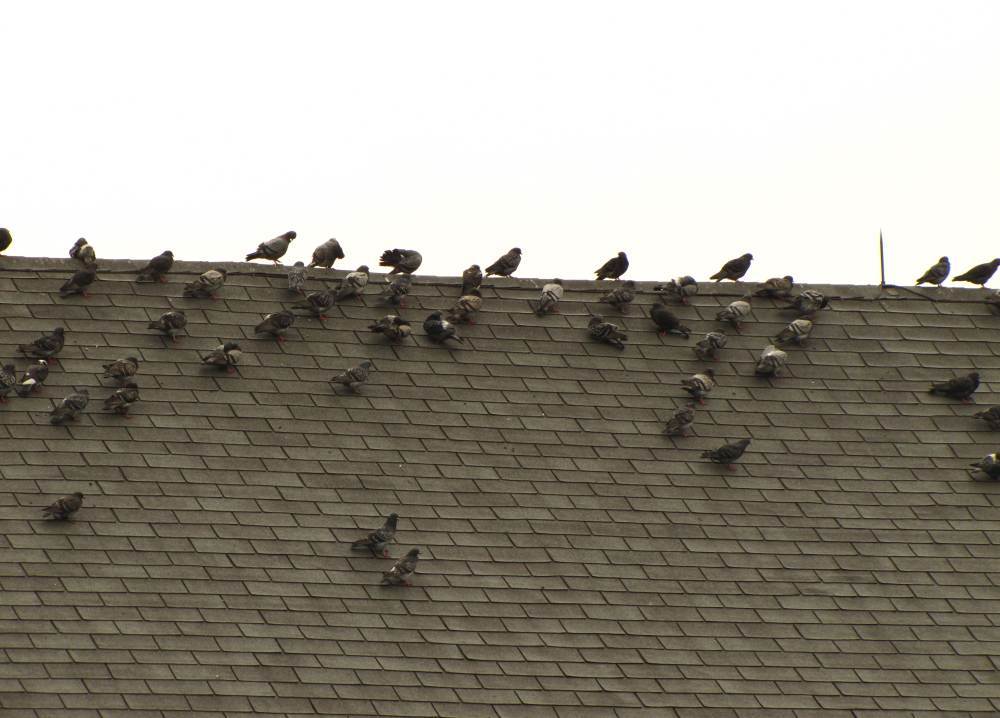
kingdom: Animalia
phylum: Chordata
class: Aves
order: Columbiformes
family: Columbidae
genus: Columba
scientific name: Columba livia
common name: Rock pigeon
